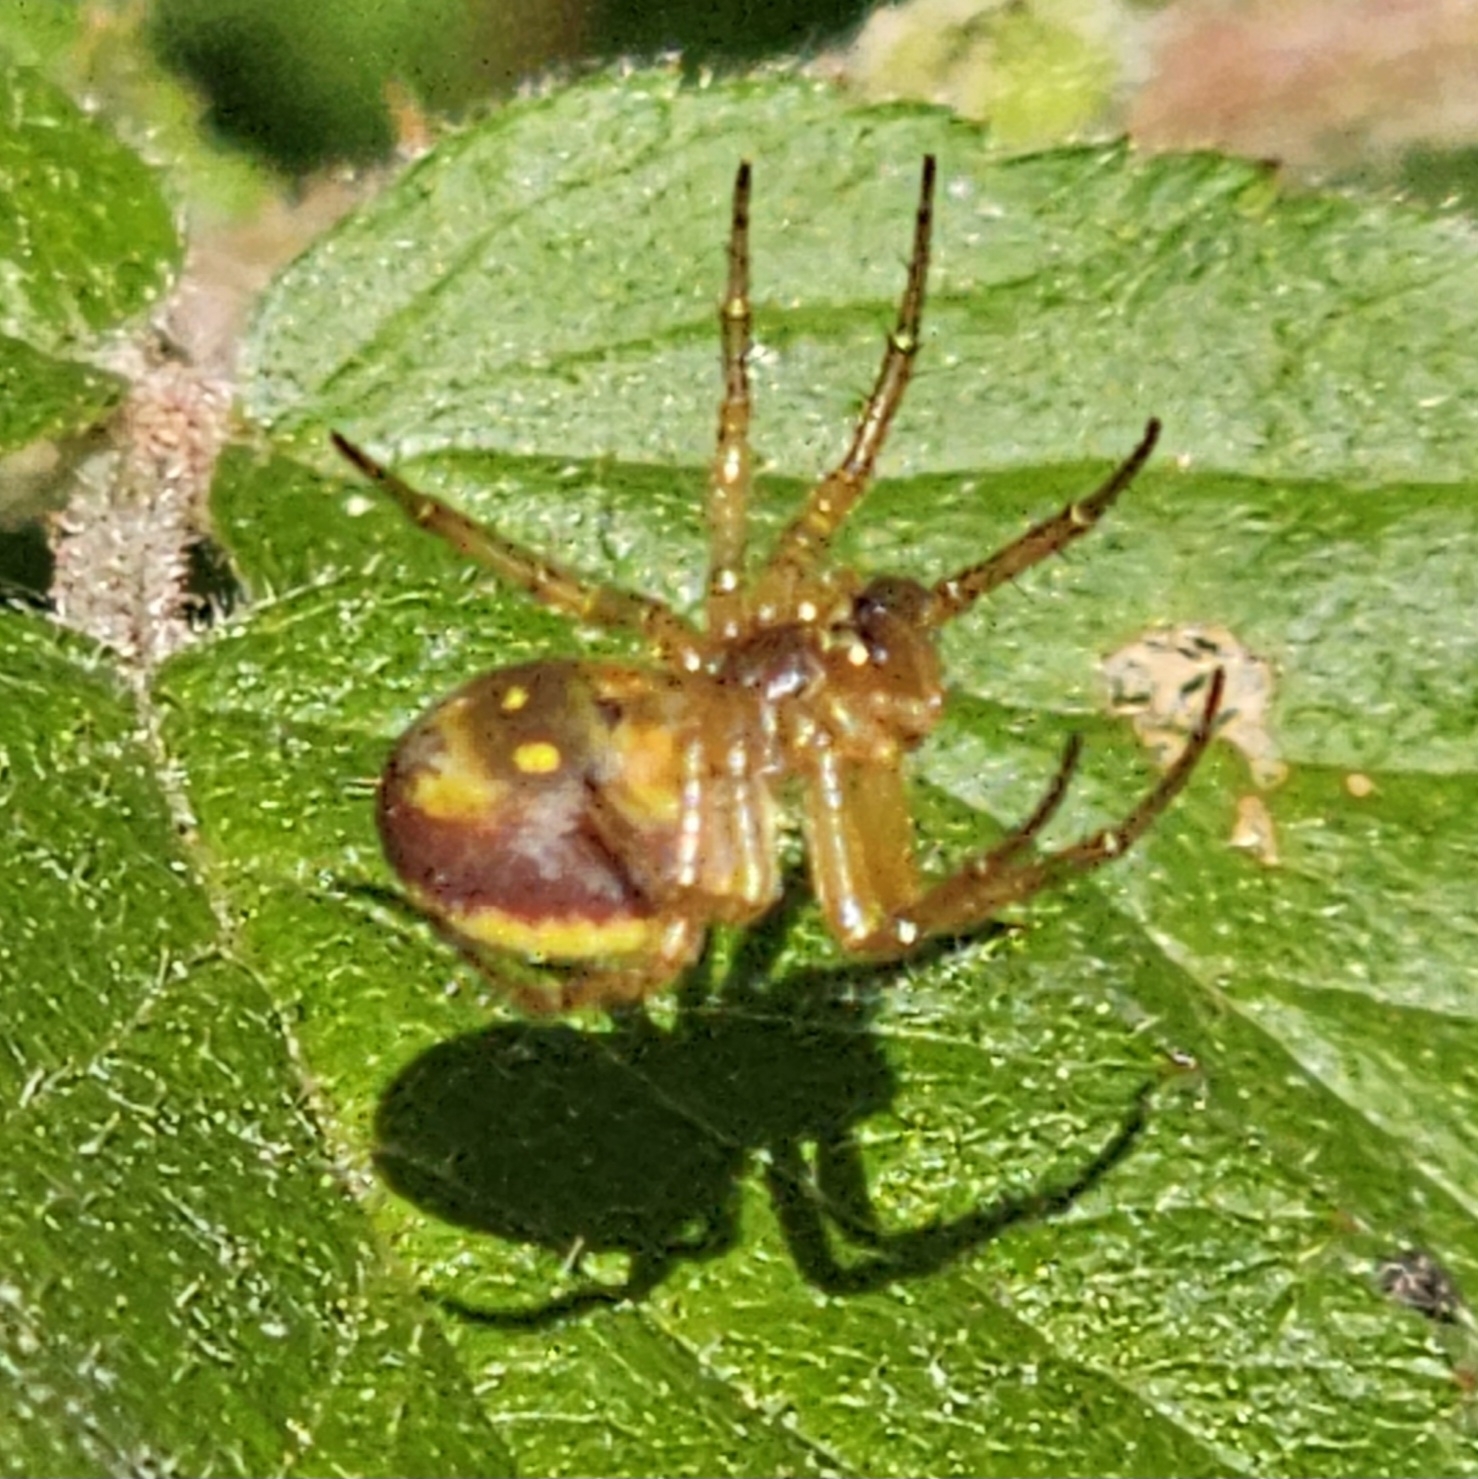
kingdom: Animalia
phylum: Arthropoda
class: Arachnida
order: Araneae
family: Araneidae
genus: Araniella
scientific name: Araniella displicata
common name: Sixspotted orb weaver
